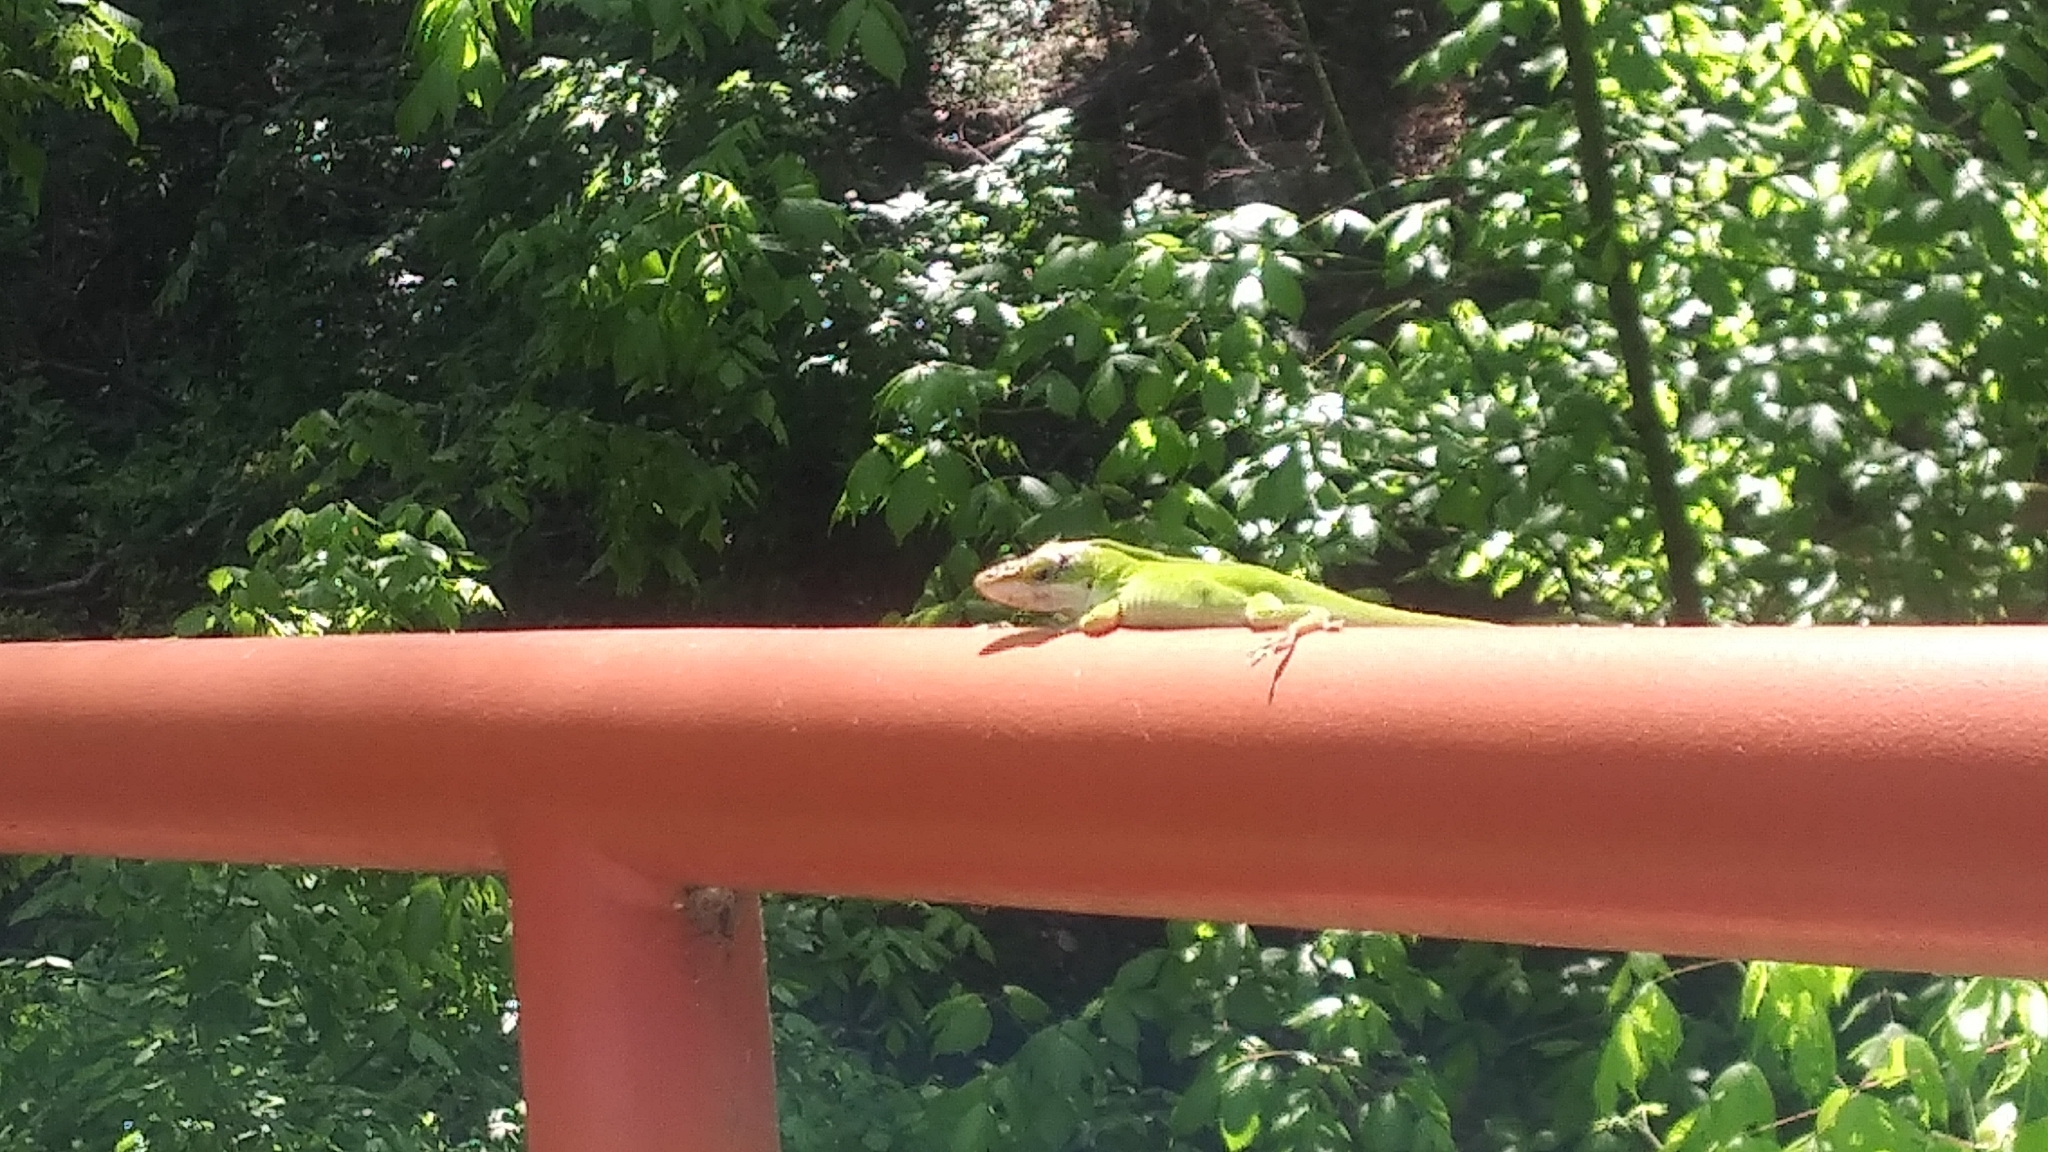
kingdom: Animalia
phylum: Chordata
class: Squamata
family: Dactyloidae
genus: Anolis
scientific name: Anolis carolinensis
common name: Green anole
